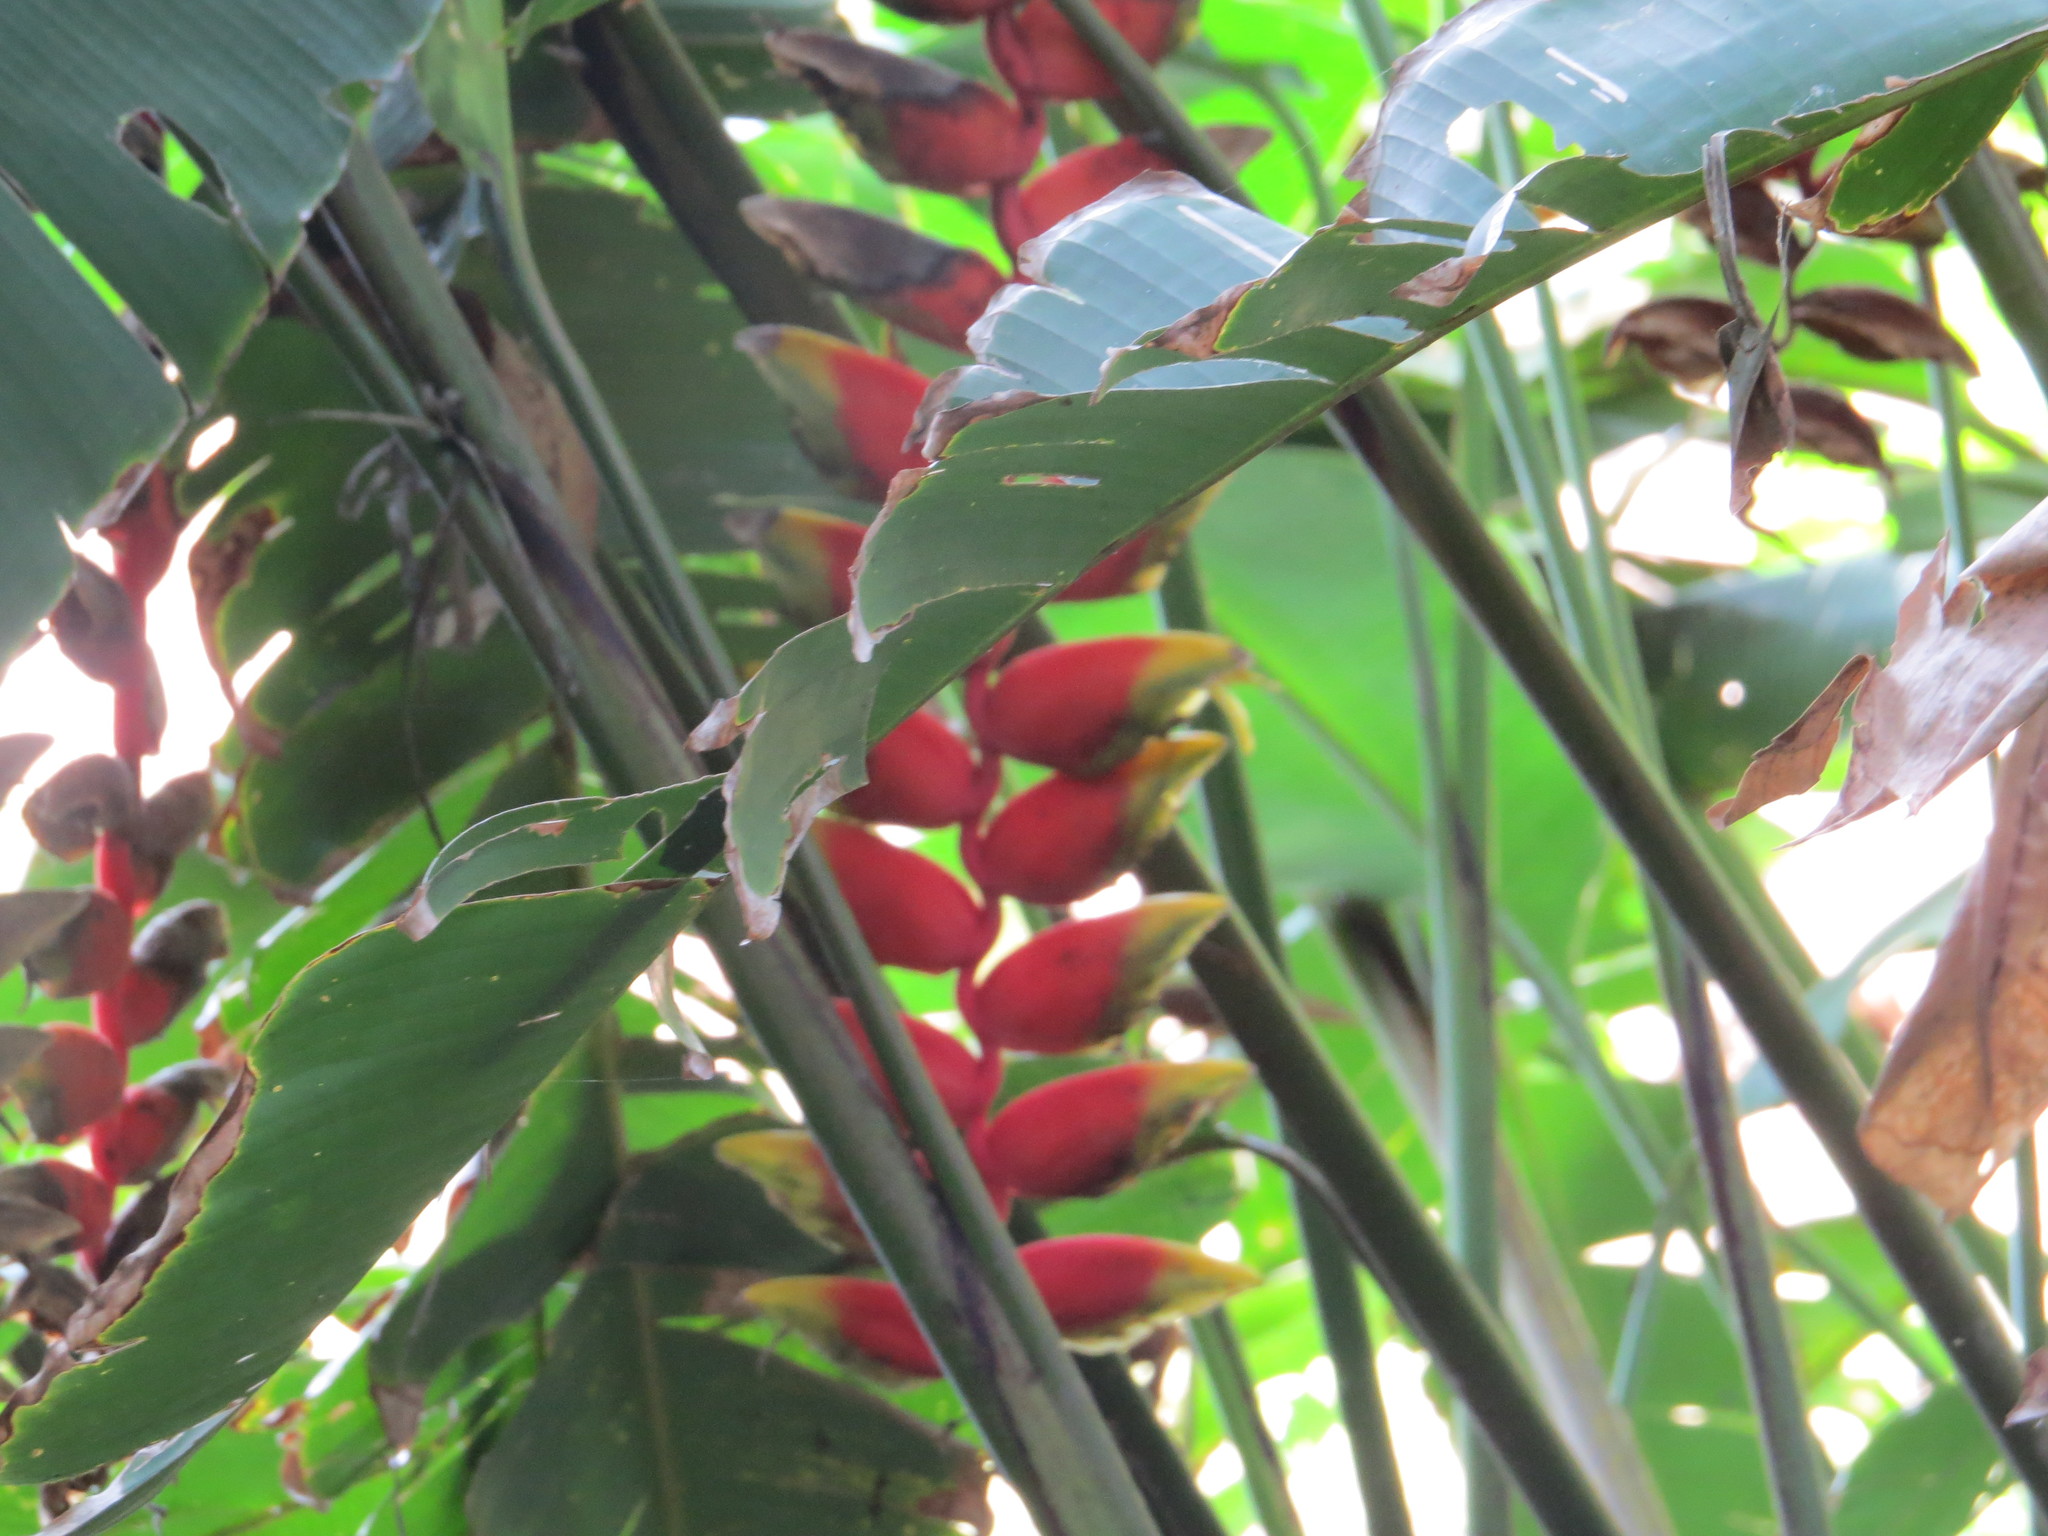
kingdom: Plantae
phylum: Tracheophyta
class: Liliopsida
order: Zingiberales
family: Heliconiaceae
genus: Heliconia
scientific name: Heliconia rostrata
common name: False bird of paradise
